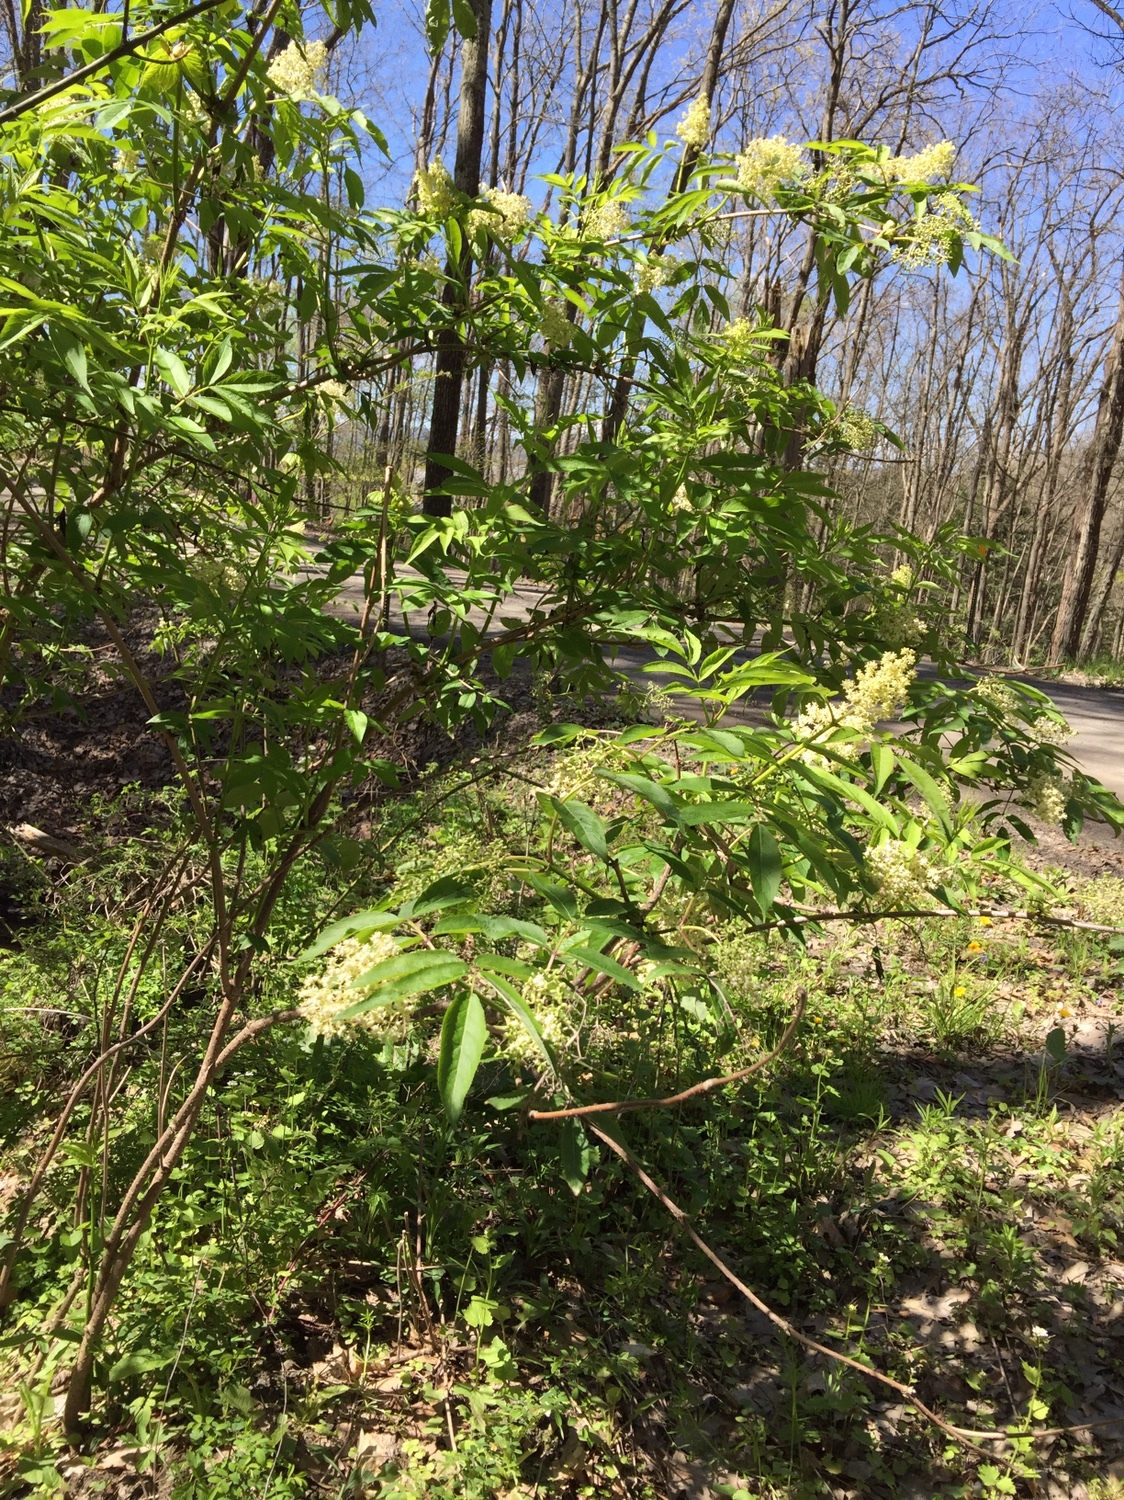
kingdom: Plantae
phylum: Tracheophyta
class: Magnoliopsida
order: Dipsacales
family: Viburnaceae
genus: Sambucus
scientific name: Sambucus racemosa
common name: Red-berried elder
